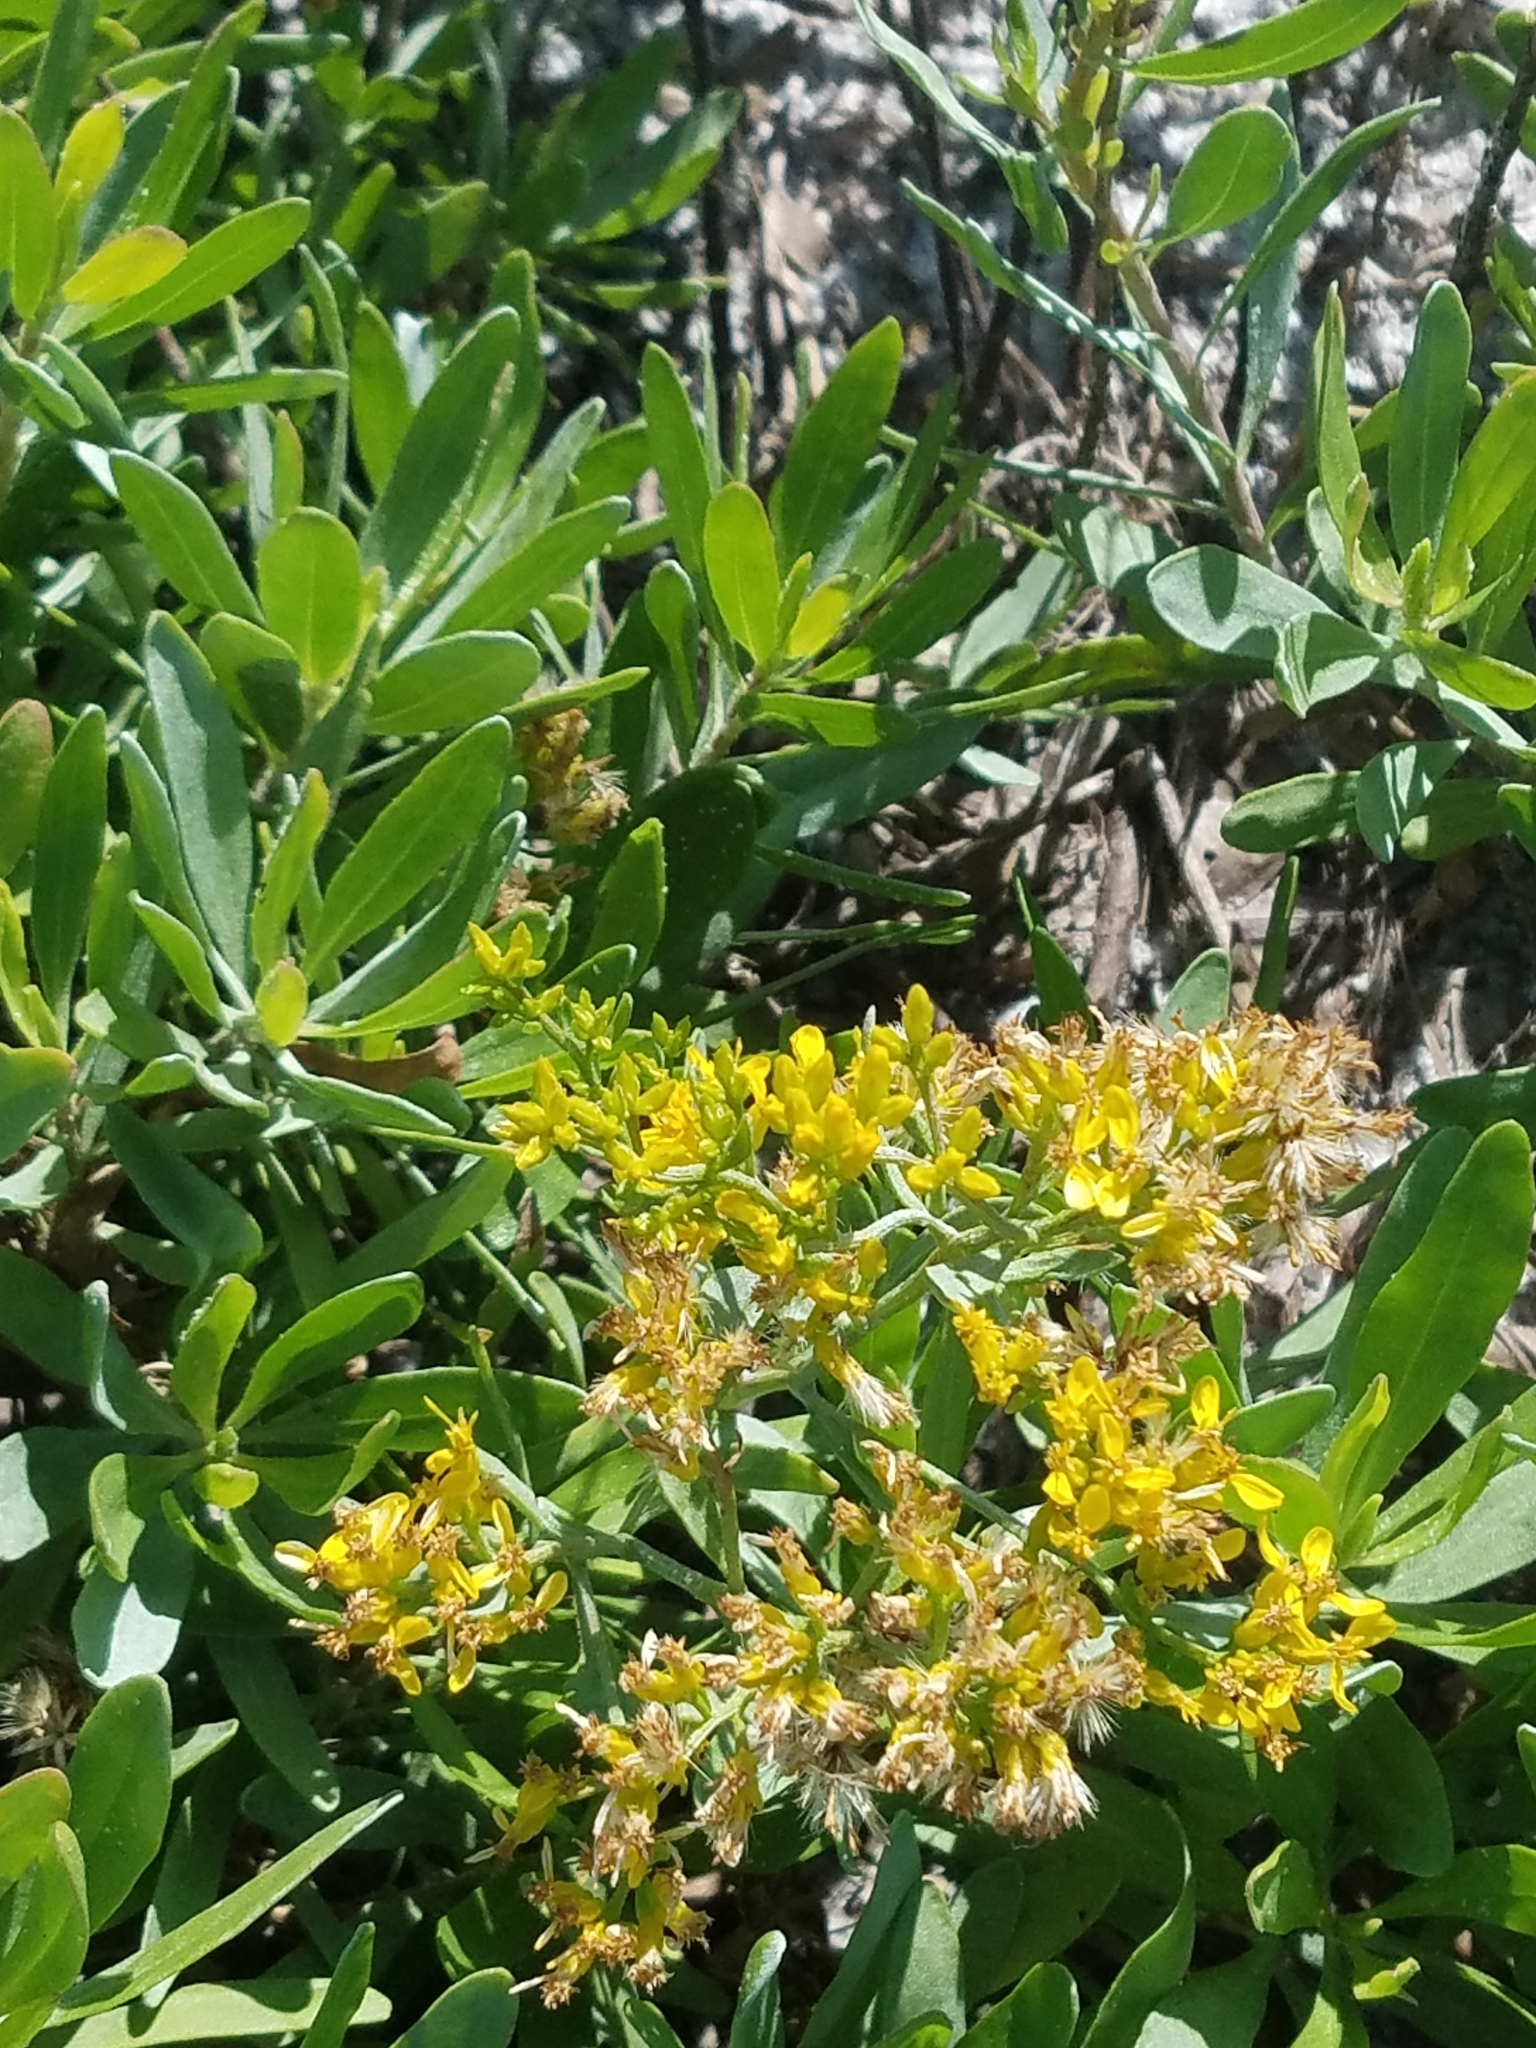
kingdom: Plantae
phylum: Tracheophyta
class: Magnoliopsida
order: Asterales
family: Asteraceae
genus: Chrysoma
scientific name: Chrysoma pauciflosculosa
